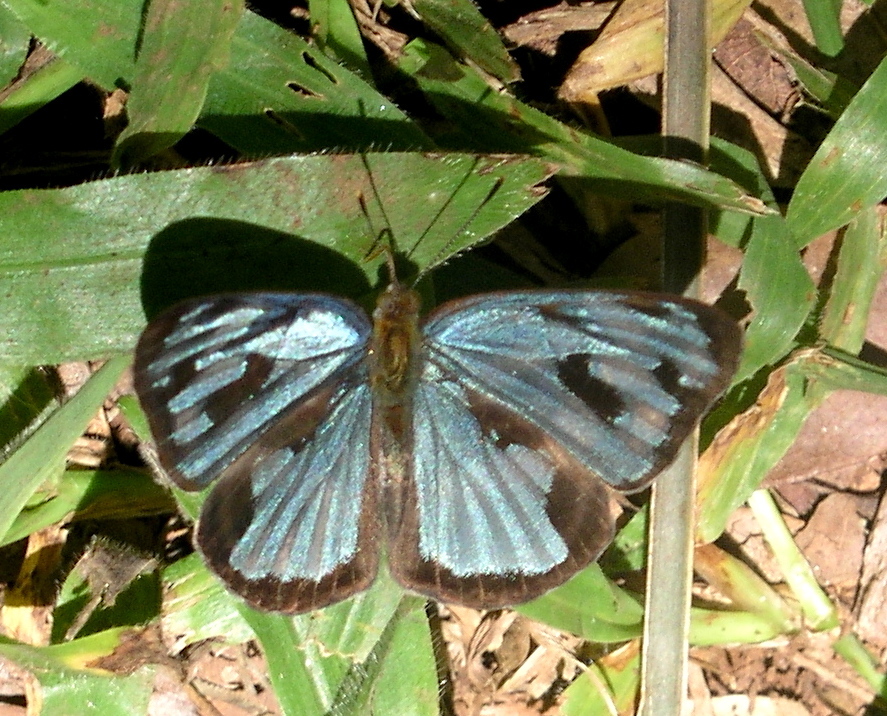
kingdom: Animalia
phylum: Arthropoda
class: Insecta
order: Lepidoptera
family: Nymphalidae
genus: Dynamine
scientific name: Dynamine mylitta
